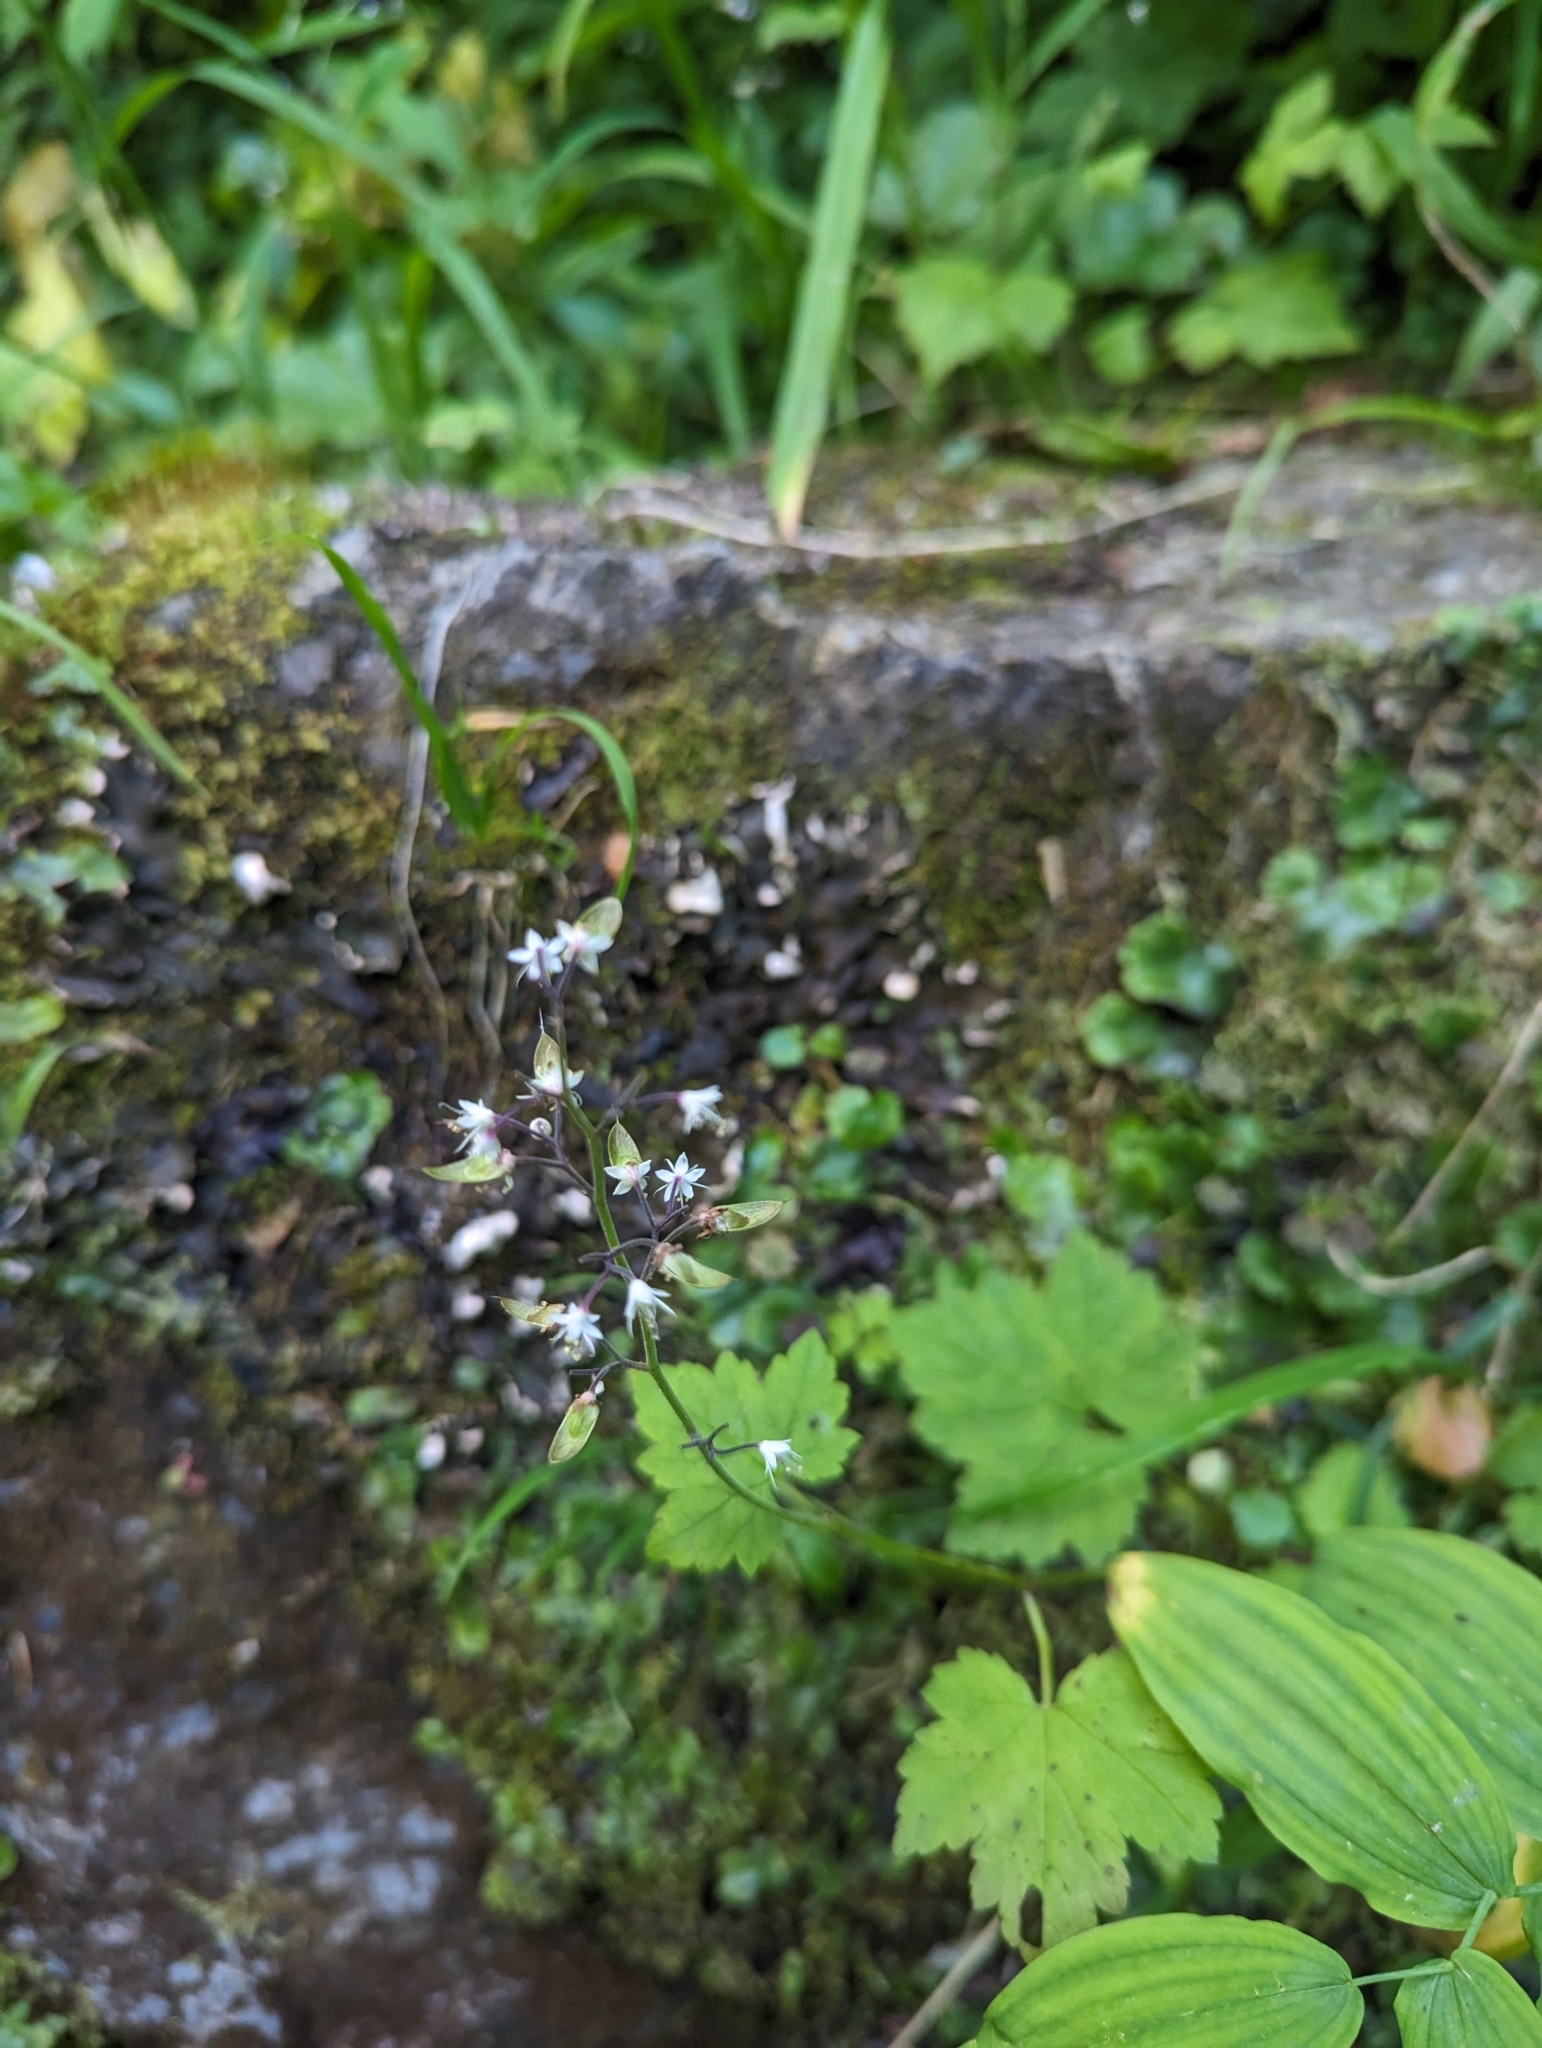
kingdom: Plantae
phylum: Tracheophyta
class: Magnoliopsida
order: Saxifragales
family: Saxifragaceae
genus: Tiarella
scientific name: Tiarella trifoliata
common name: Sugar-scoop
